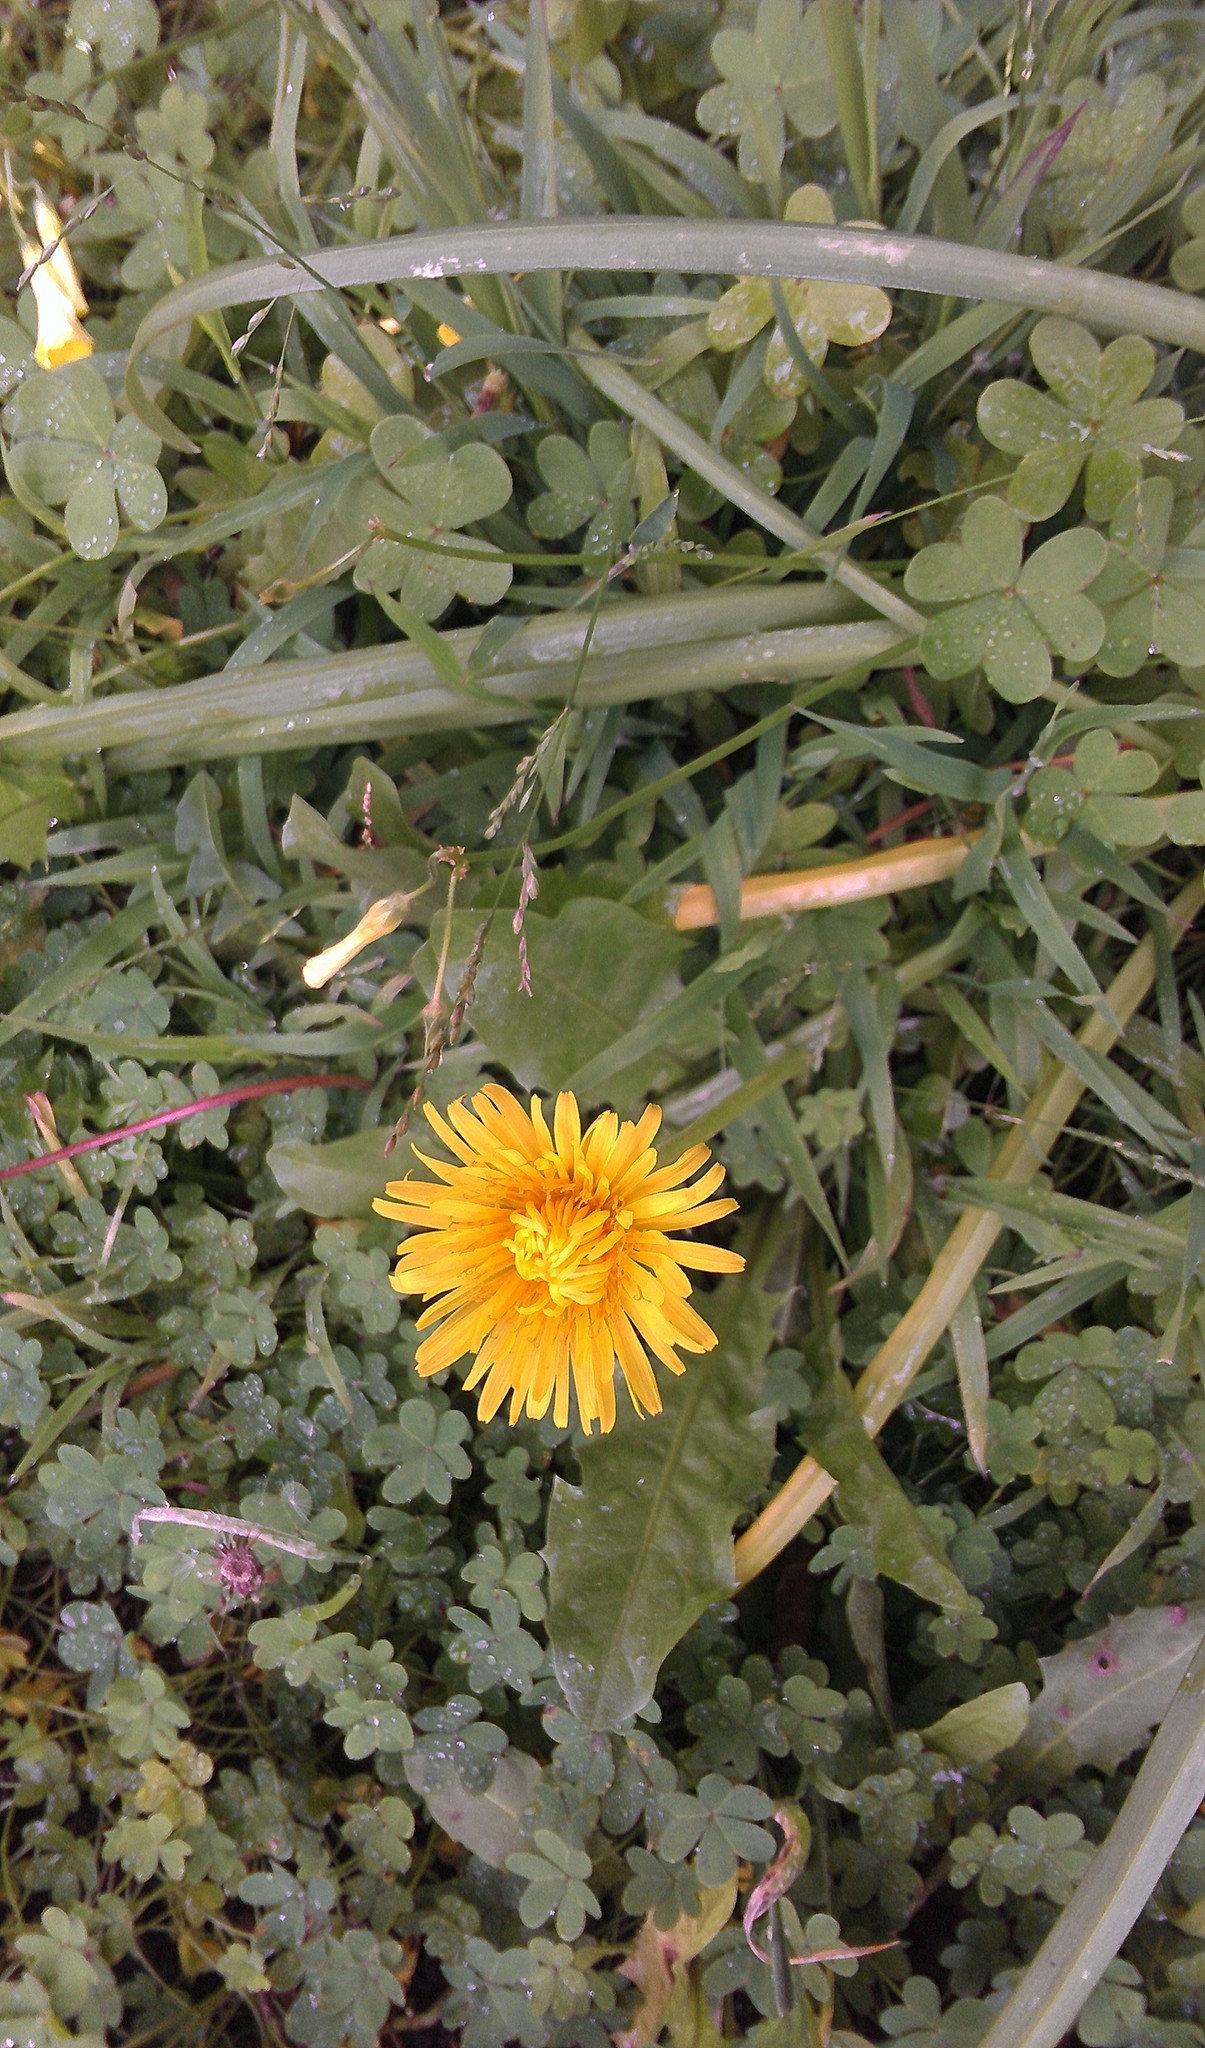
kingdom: Plantae
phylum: Tracheophyta
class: Magnoliopsida
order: Asterales
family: Asteraceae
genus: Taraxacum
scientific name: Taraxacum officinale
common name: Common dandelion
